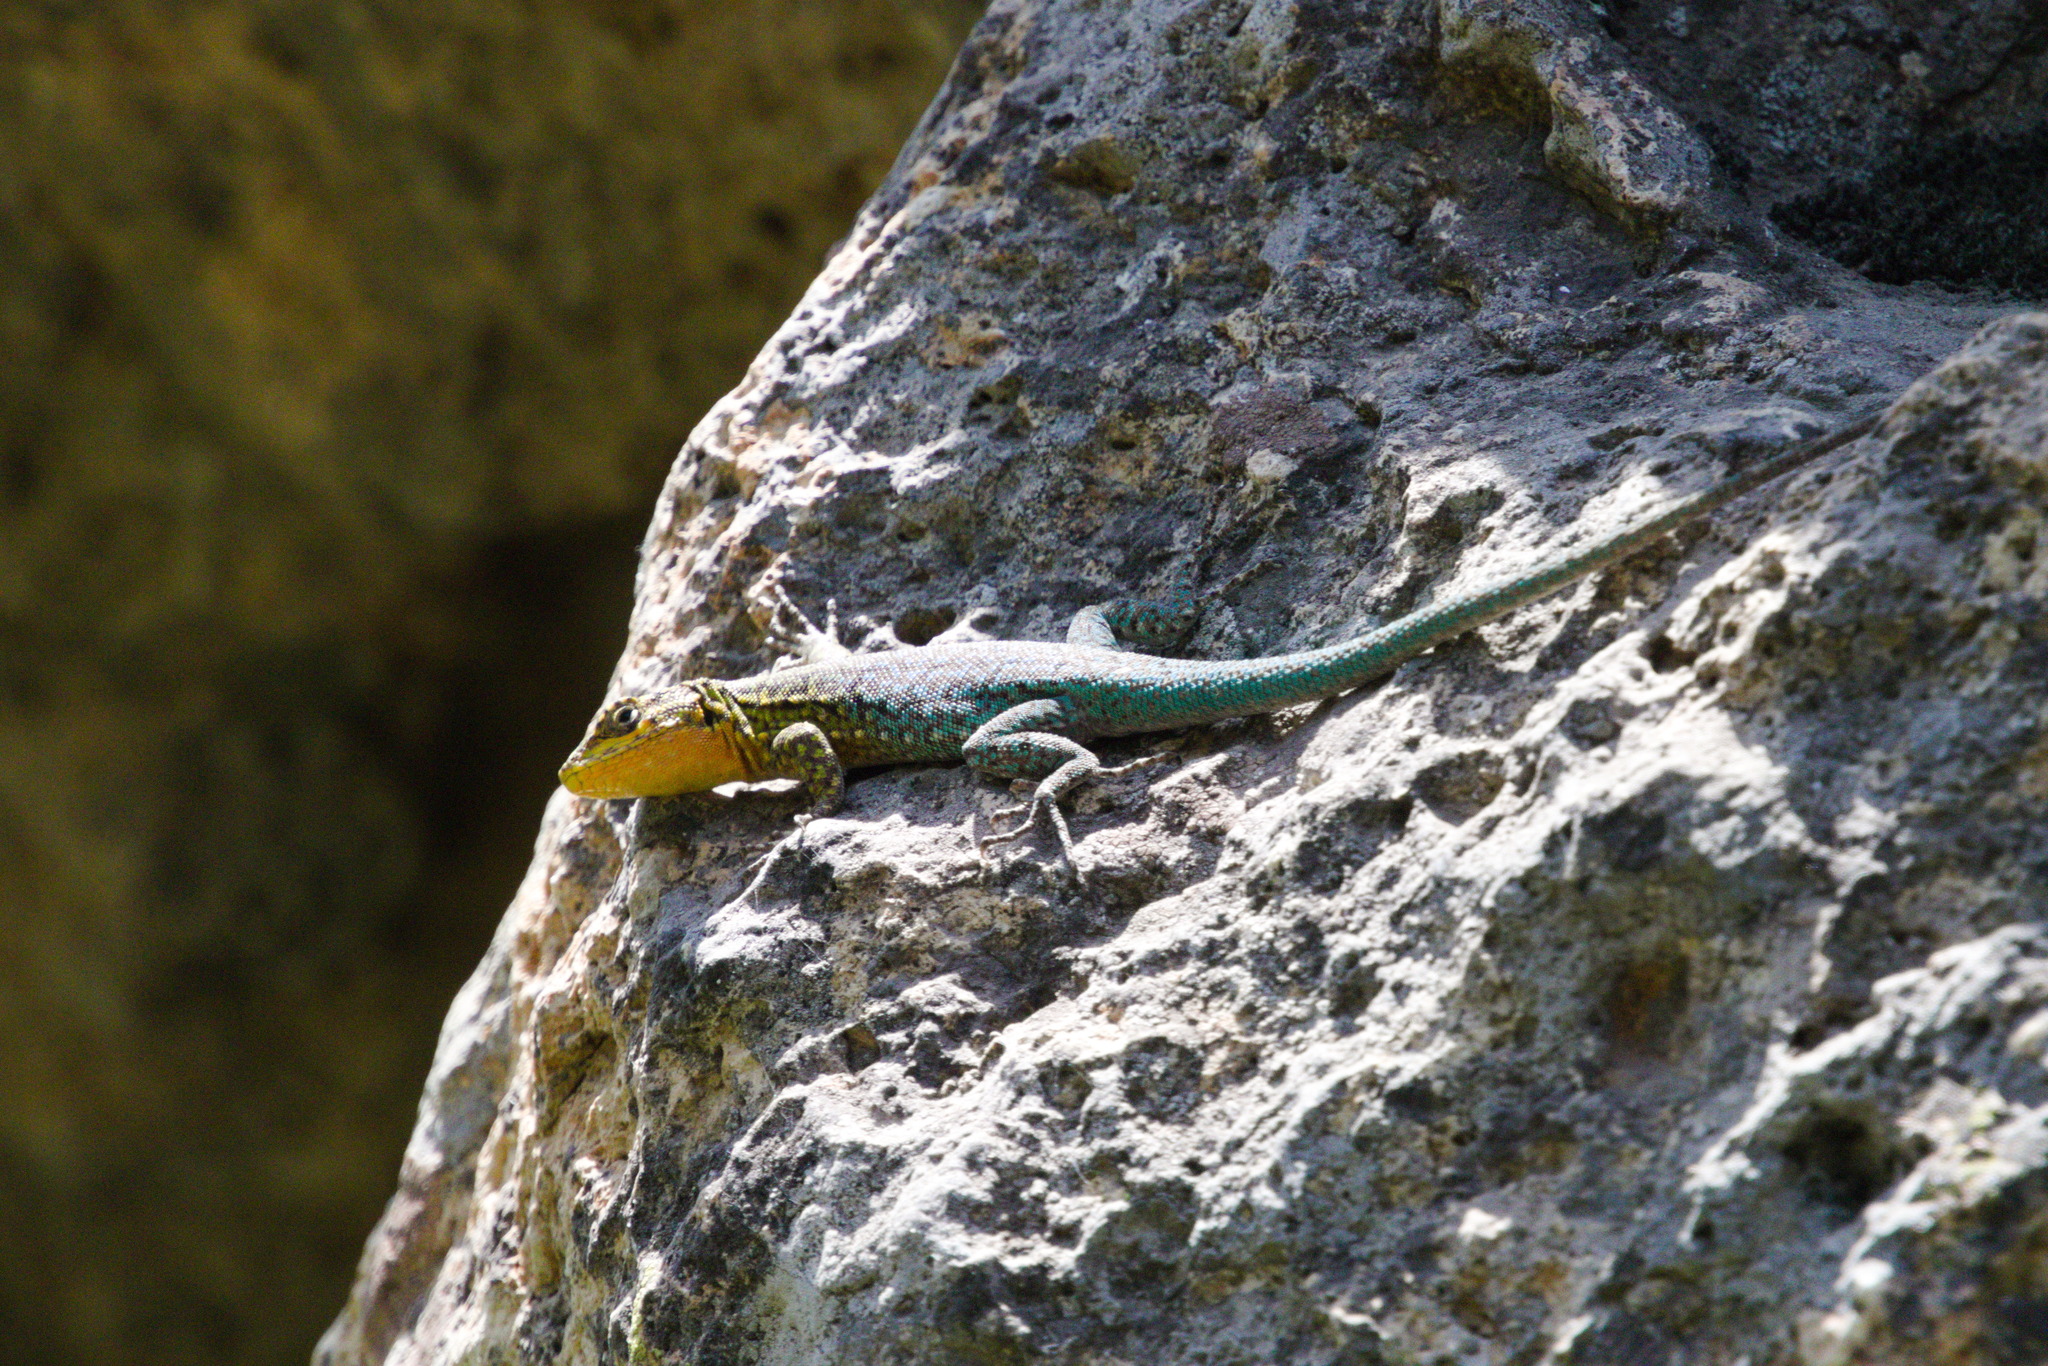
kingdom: Animalia
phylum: Chordata
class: Squamata
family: Liolaemidae
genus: Liolaemus
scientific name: Liolaemus tenuis
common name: Thin tree iguana
